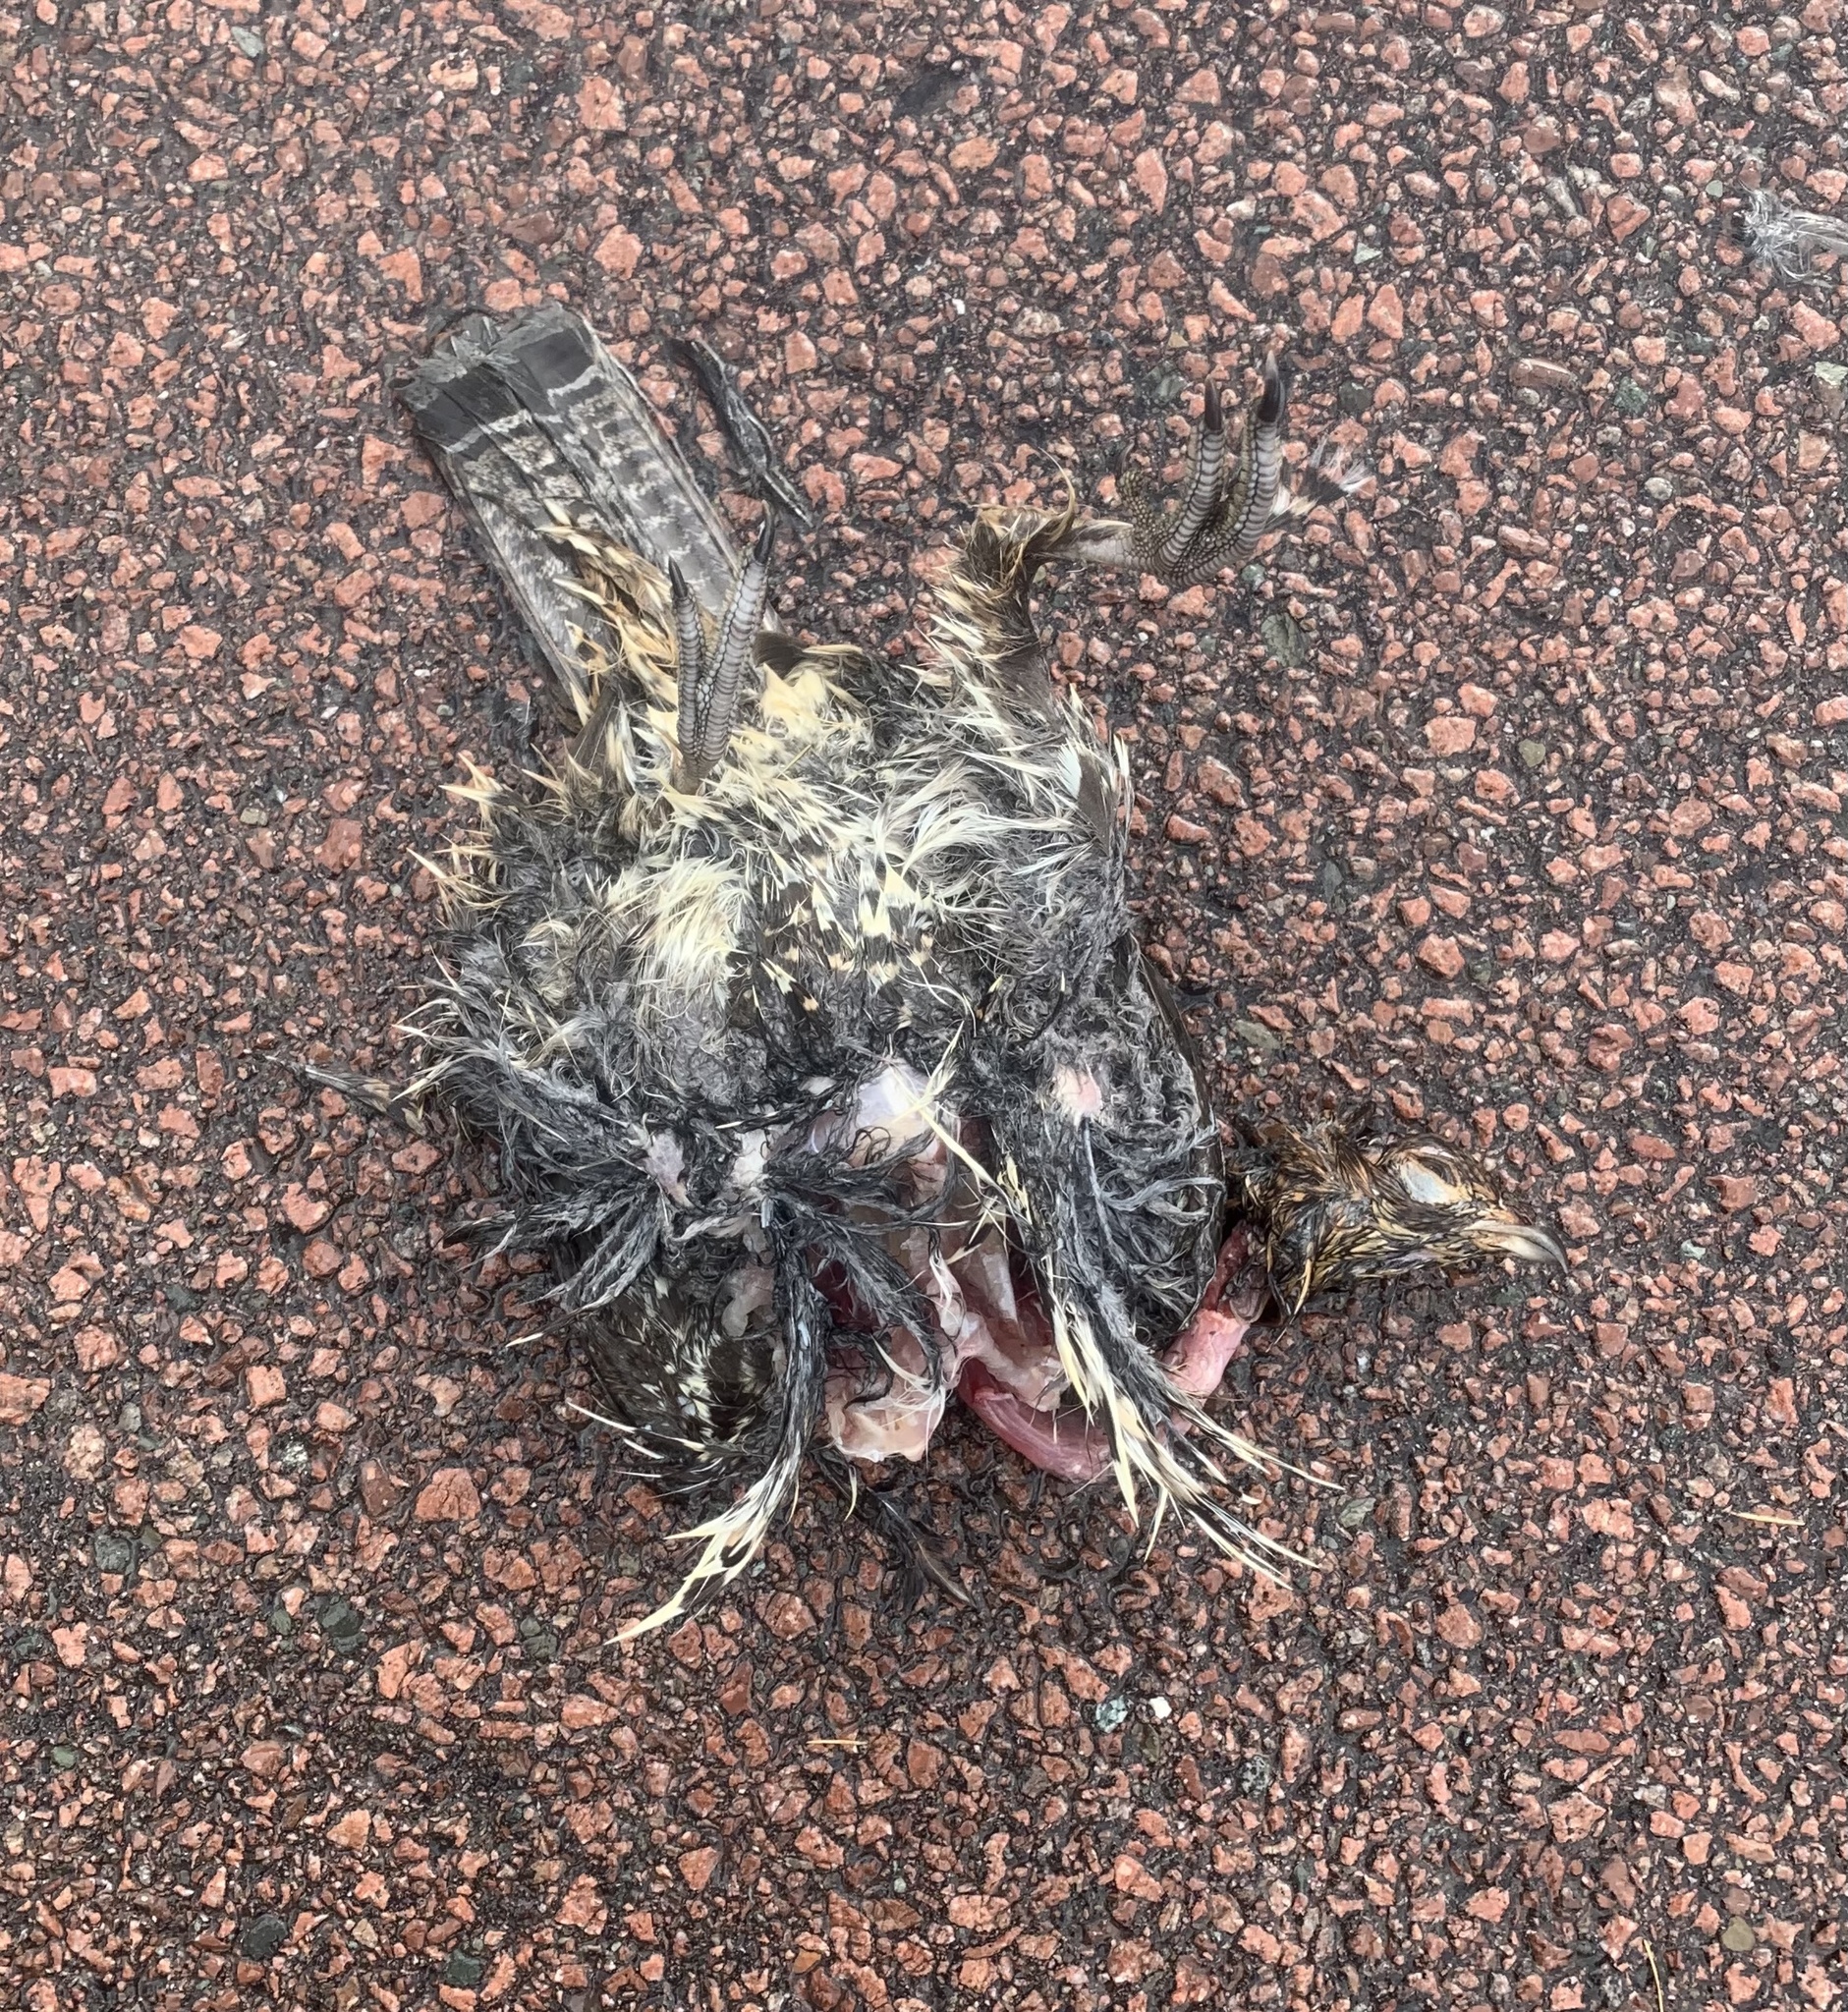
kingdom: Animalia
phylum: Chordata
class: Aves
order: Galliformes
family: Phasianidae
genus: Bonasa
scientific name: Bonasa umbellus
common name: Ruffed grouse
